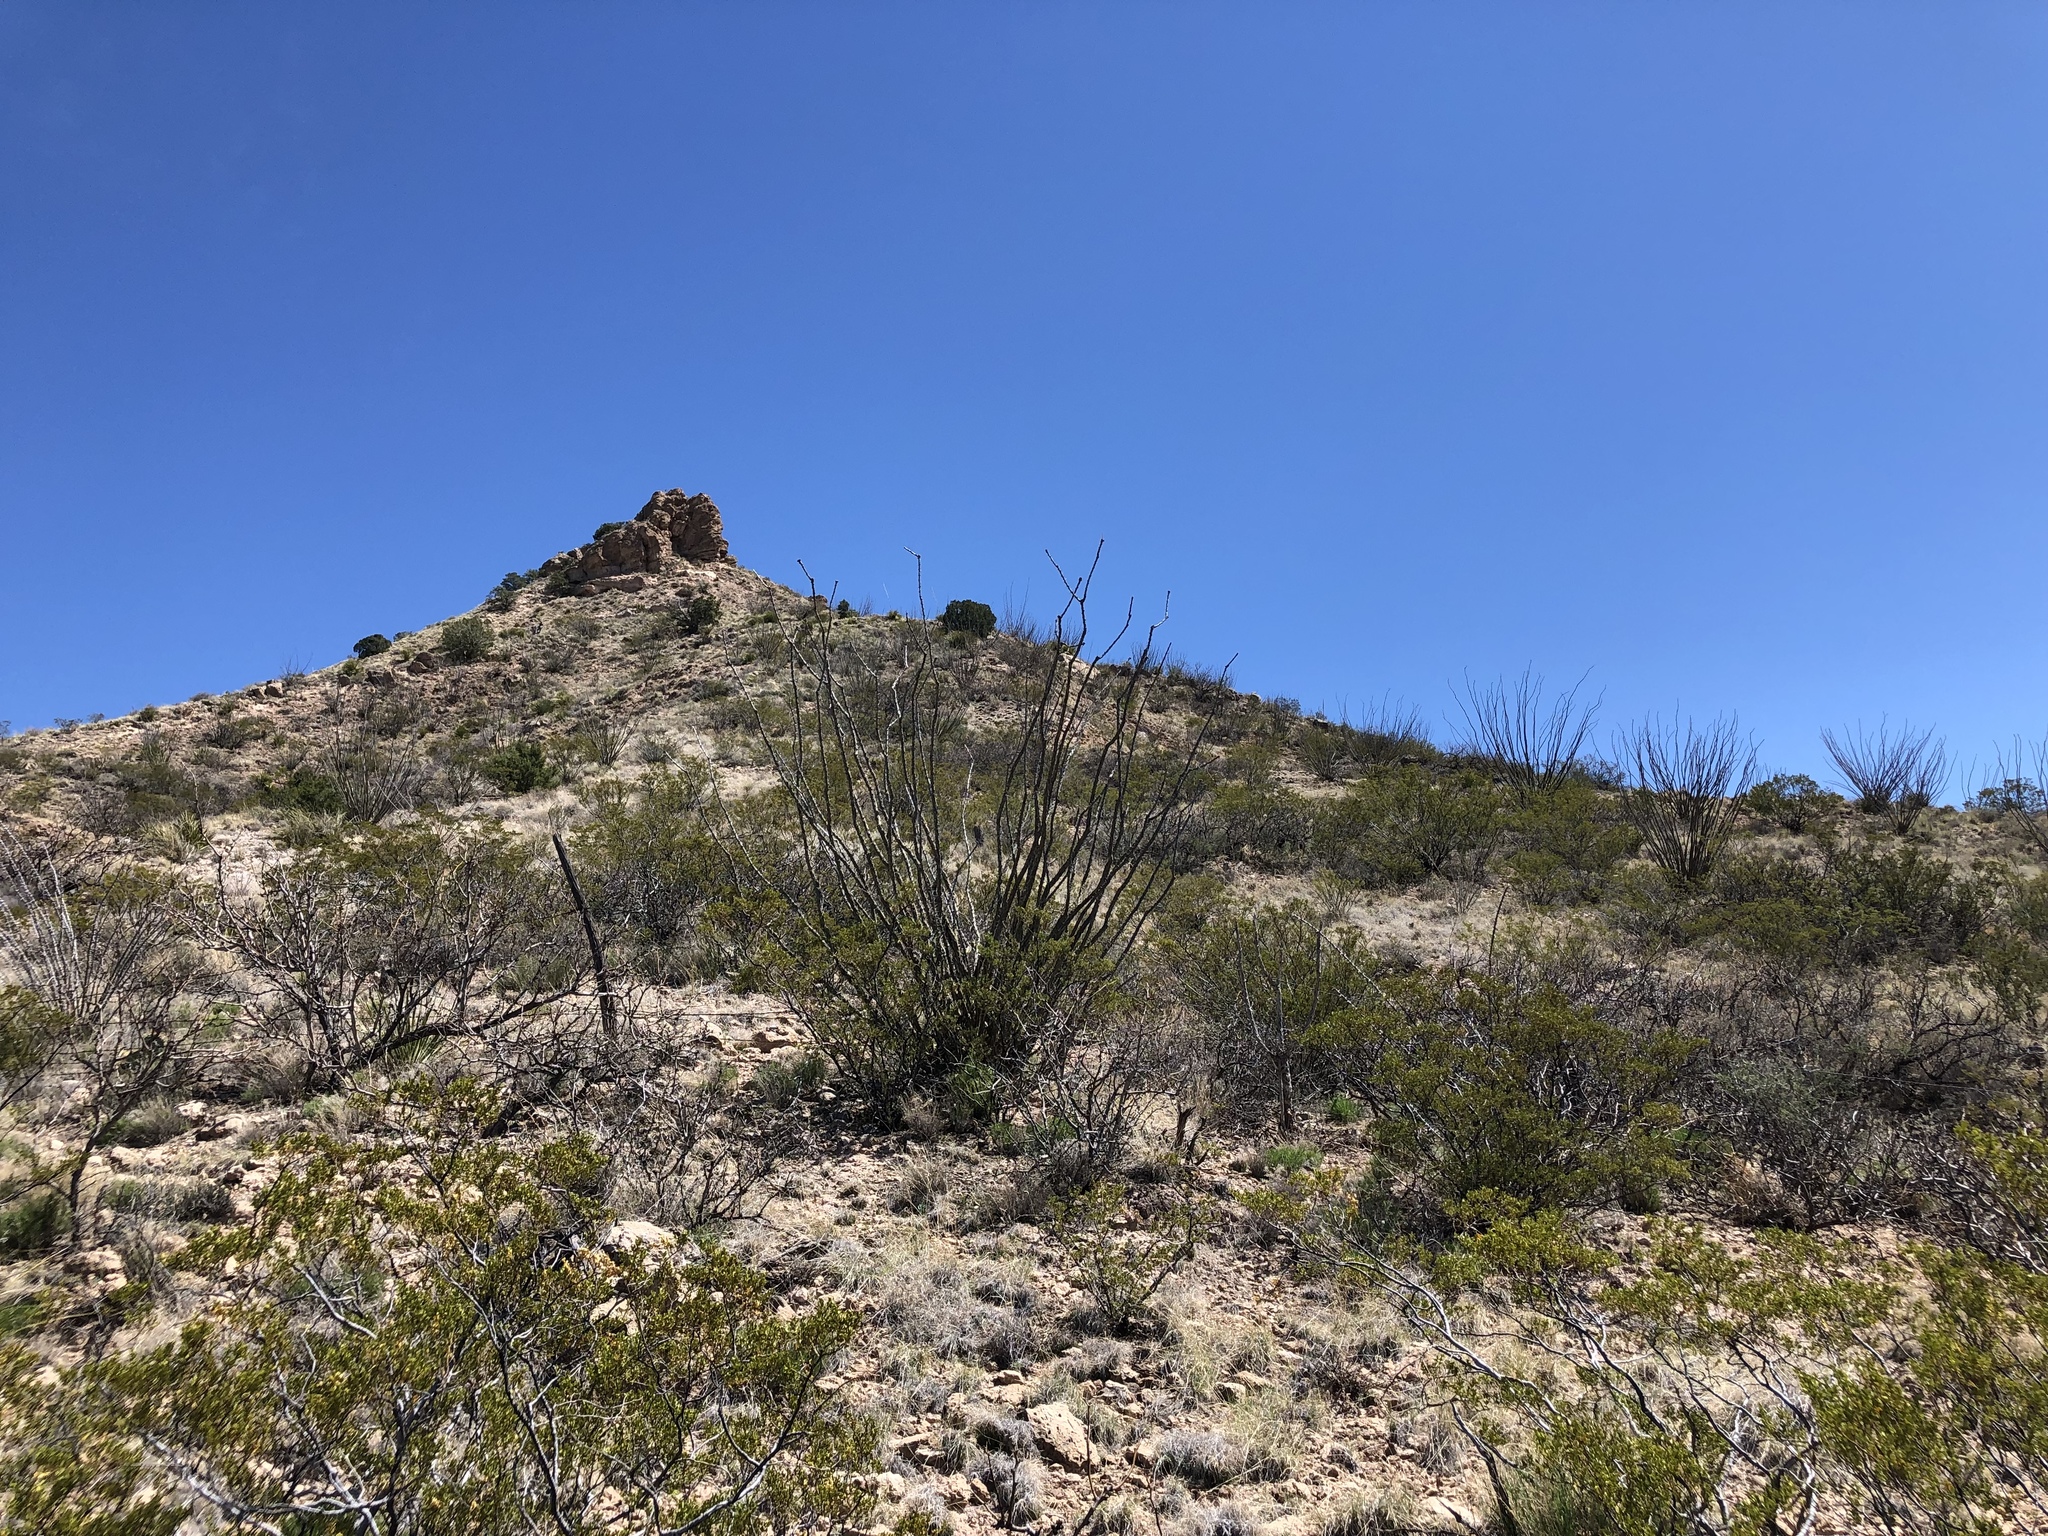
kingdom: Plantae
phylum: Tracheophyta
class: Magnoliopsida
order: Ericales
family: Fouquieriaceae
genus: Fouquieria
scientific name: Fouquieria splendens
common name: Vine-cactus
